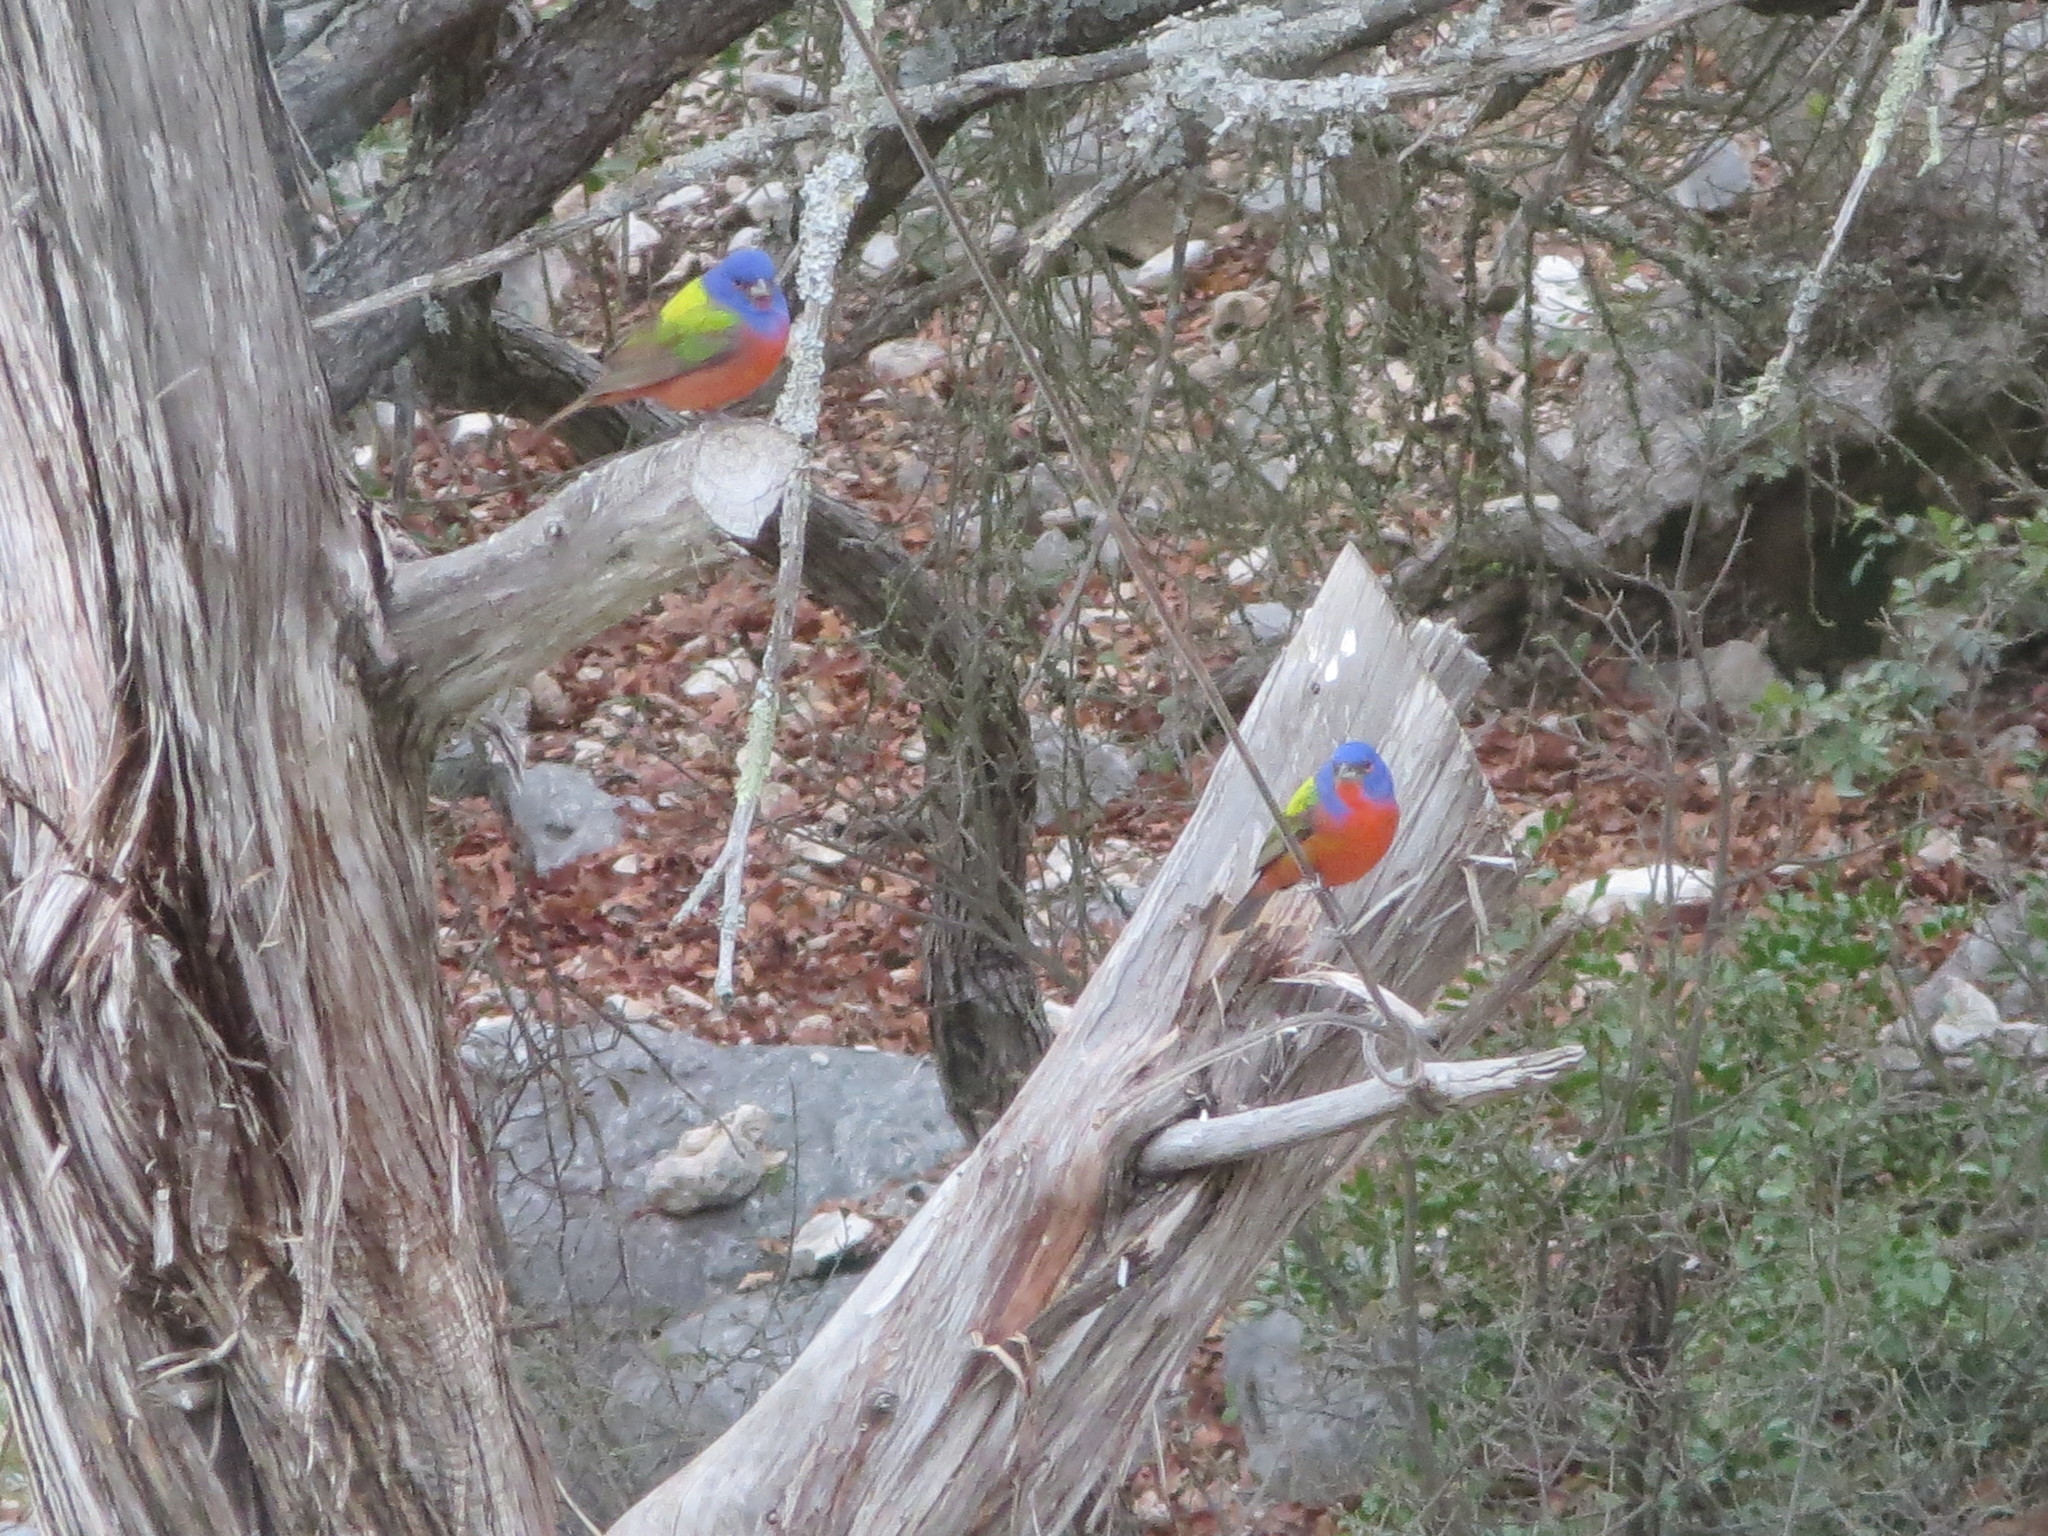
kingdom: Animalia
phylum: Chordata
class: Aves
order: Passeriformes
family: Cardinalidae
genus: Passerina
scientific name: Passerina ciris
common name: Painted bunting
